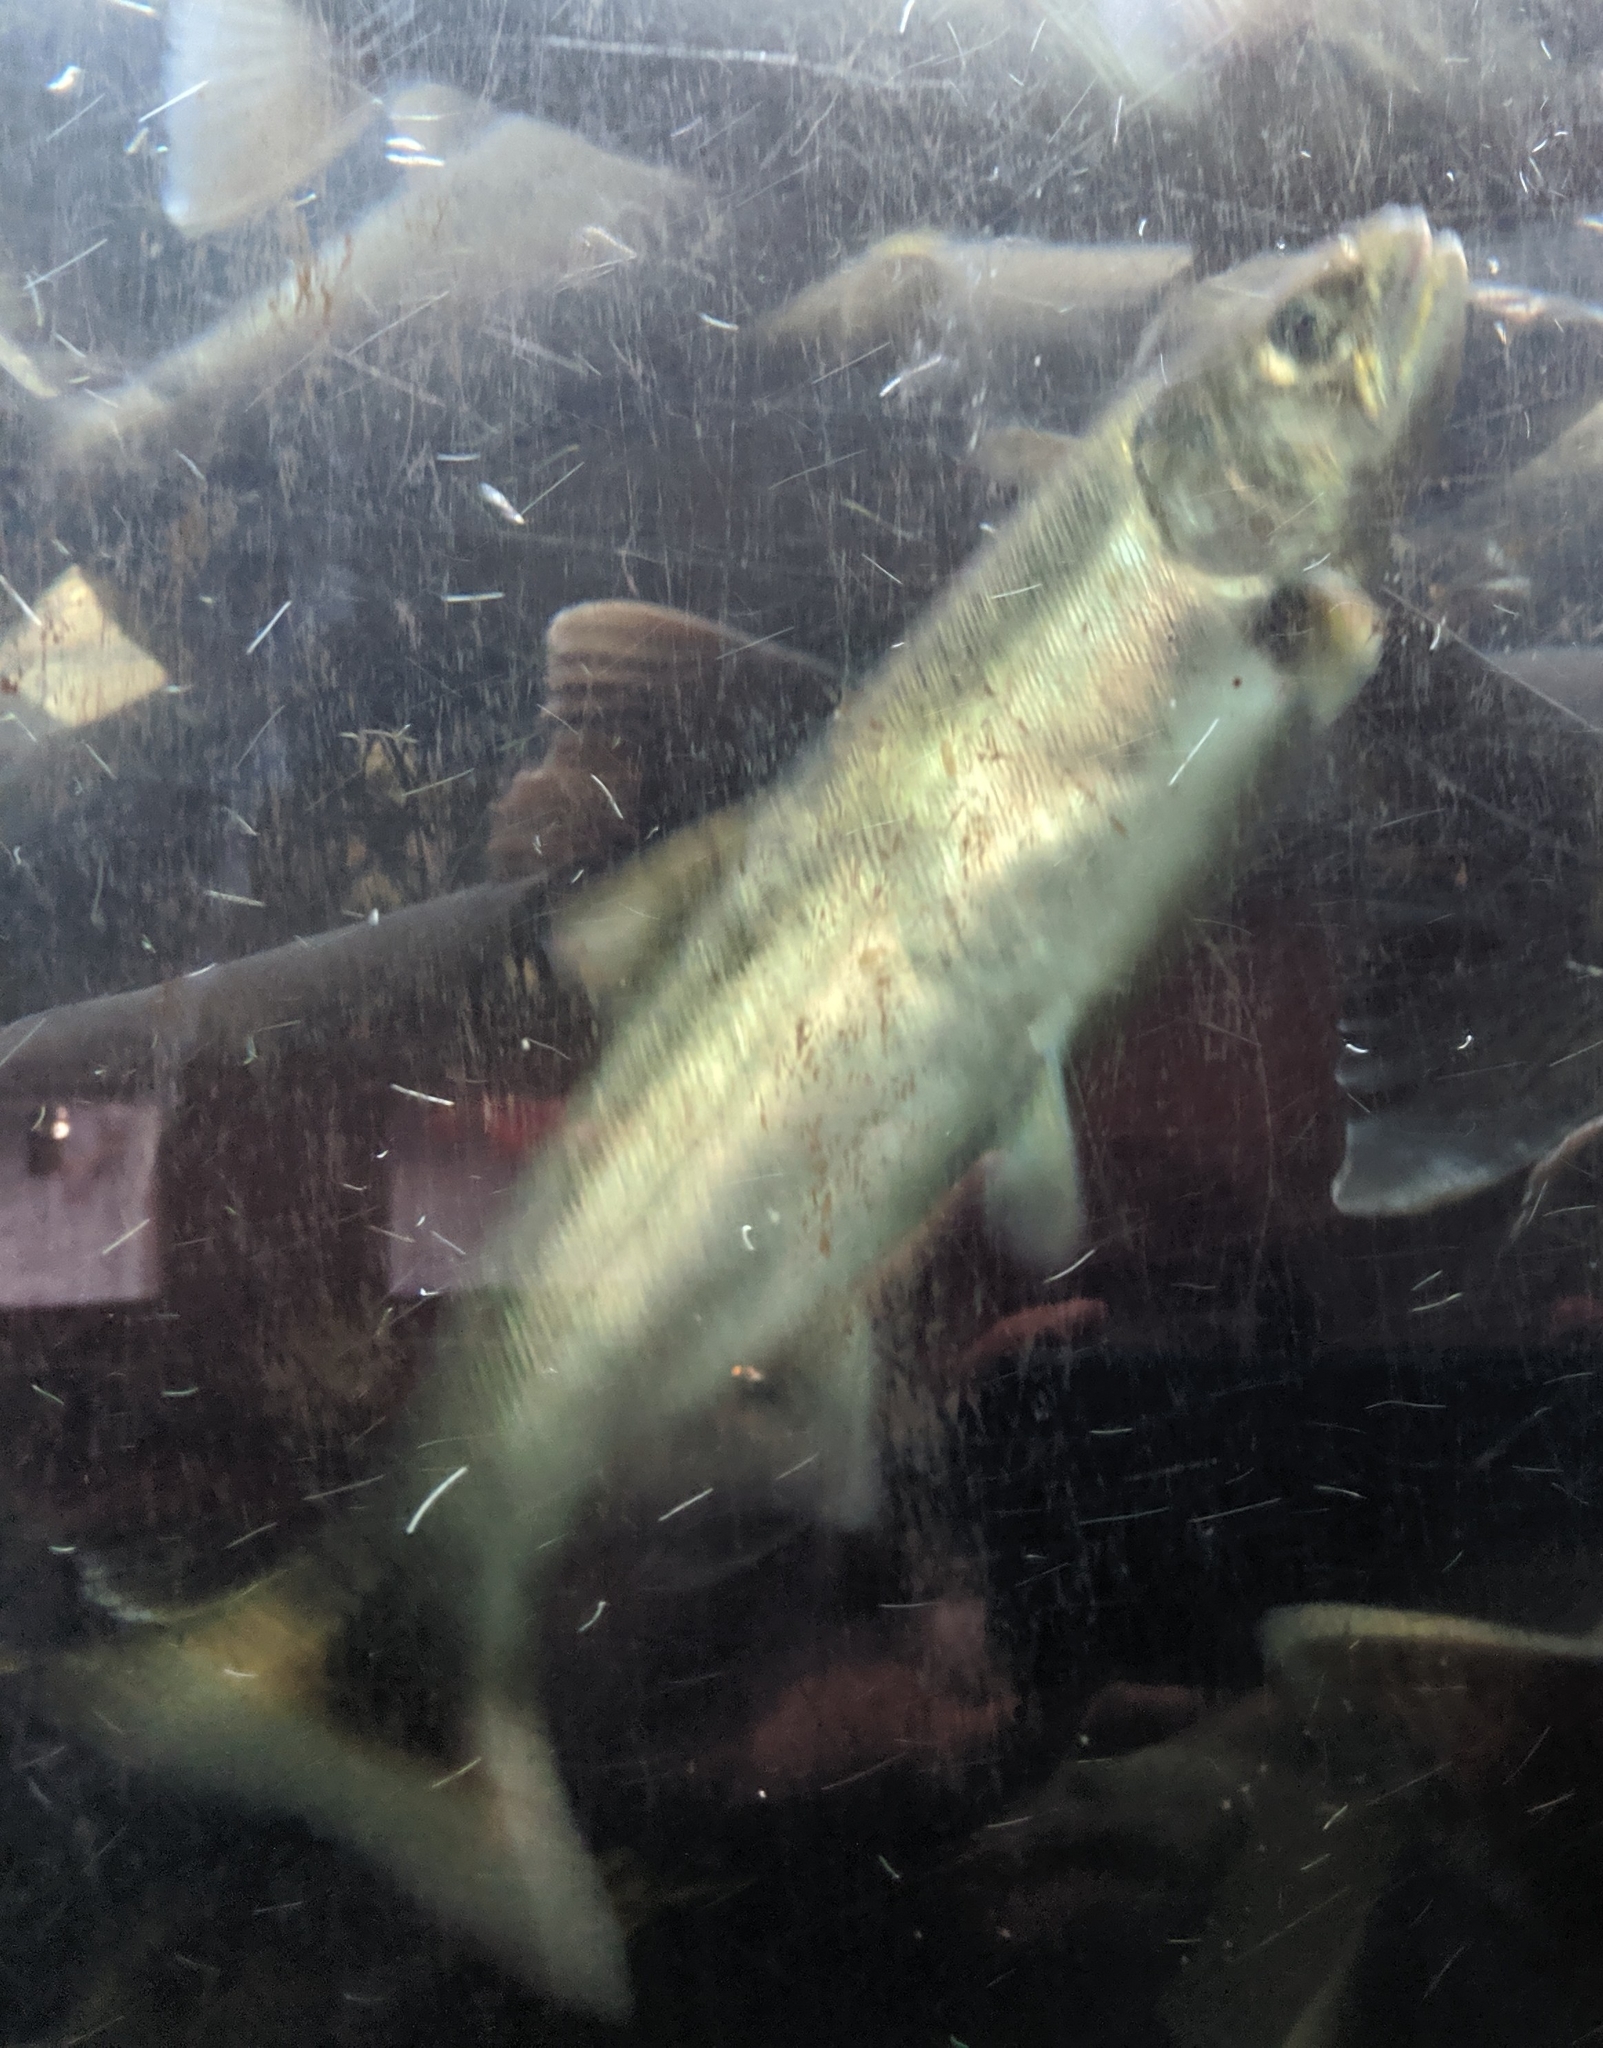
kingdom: Animalia
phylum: Chordata
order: Salmoniformes
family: Salmonidae
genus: Oncorhynchus
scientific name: Oncorhynchus kisutch
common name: Coho salmon
